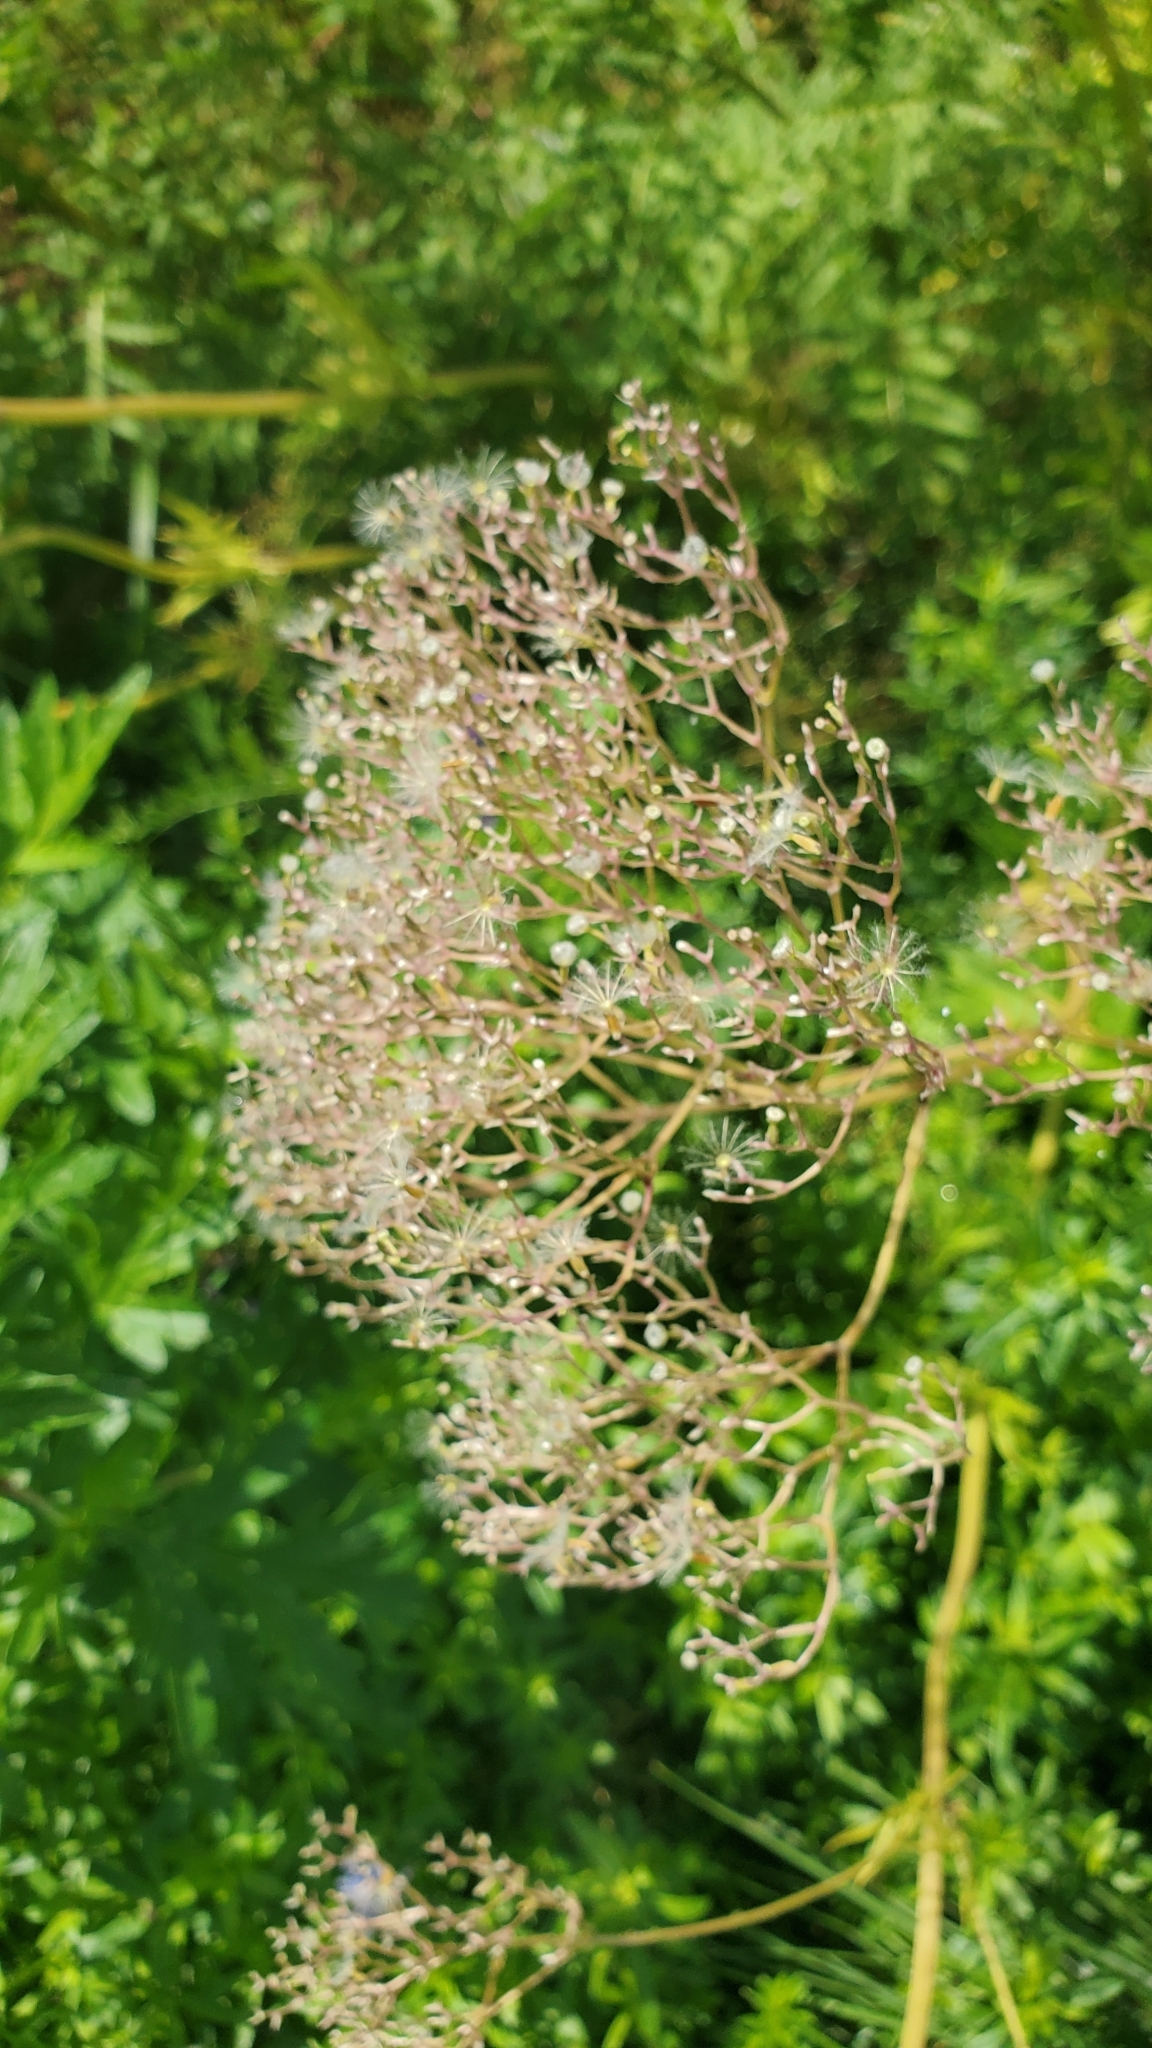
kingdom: Plantae
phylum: Tracheophyta
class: Magnoliopsida
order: Dipsacales
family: Caprifoliaceae
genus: Valeriana
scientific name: Valeriana officinalis
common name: Common valerian
